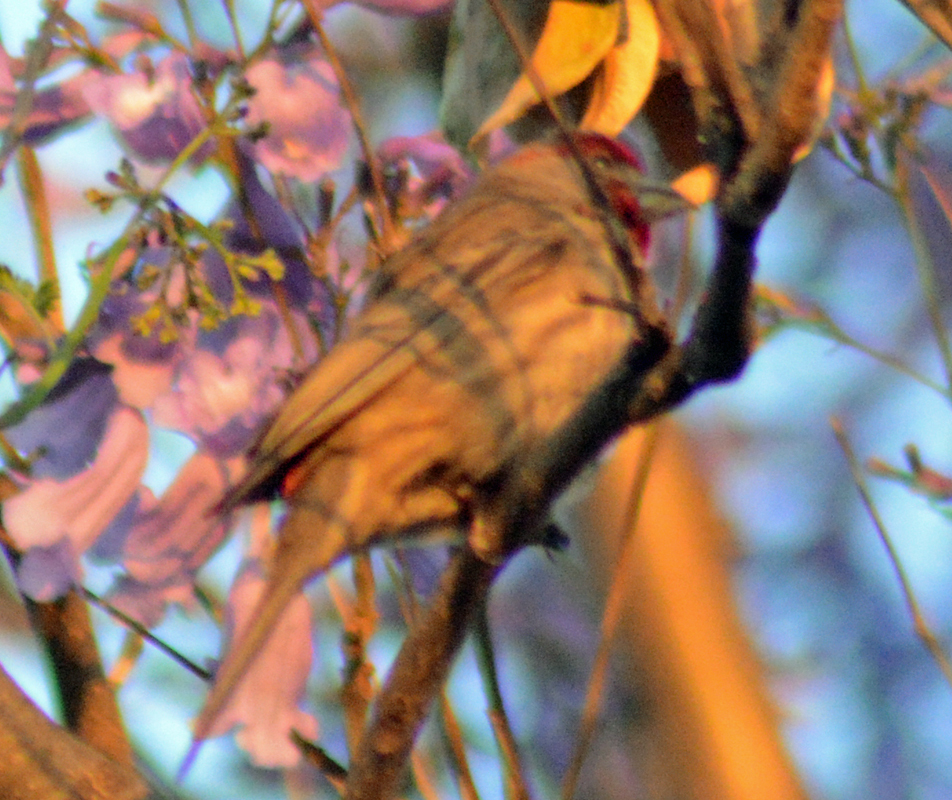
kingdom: Animalia
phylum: Chordata
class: Aves
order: Passeriformes
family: Fringillidae
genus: Haemorhous
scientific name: Haemorhous mexicanus
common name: House finch
